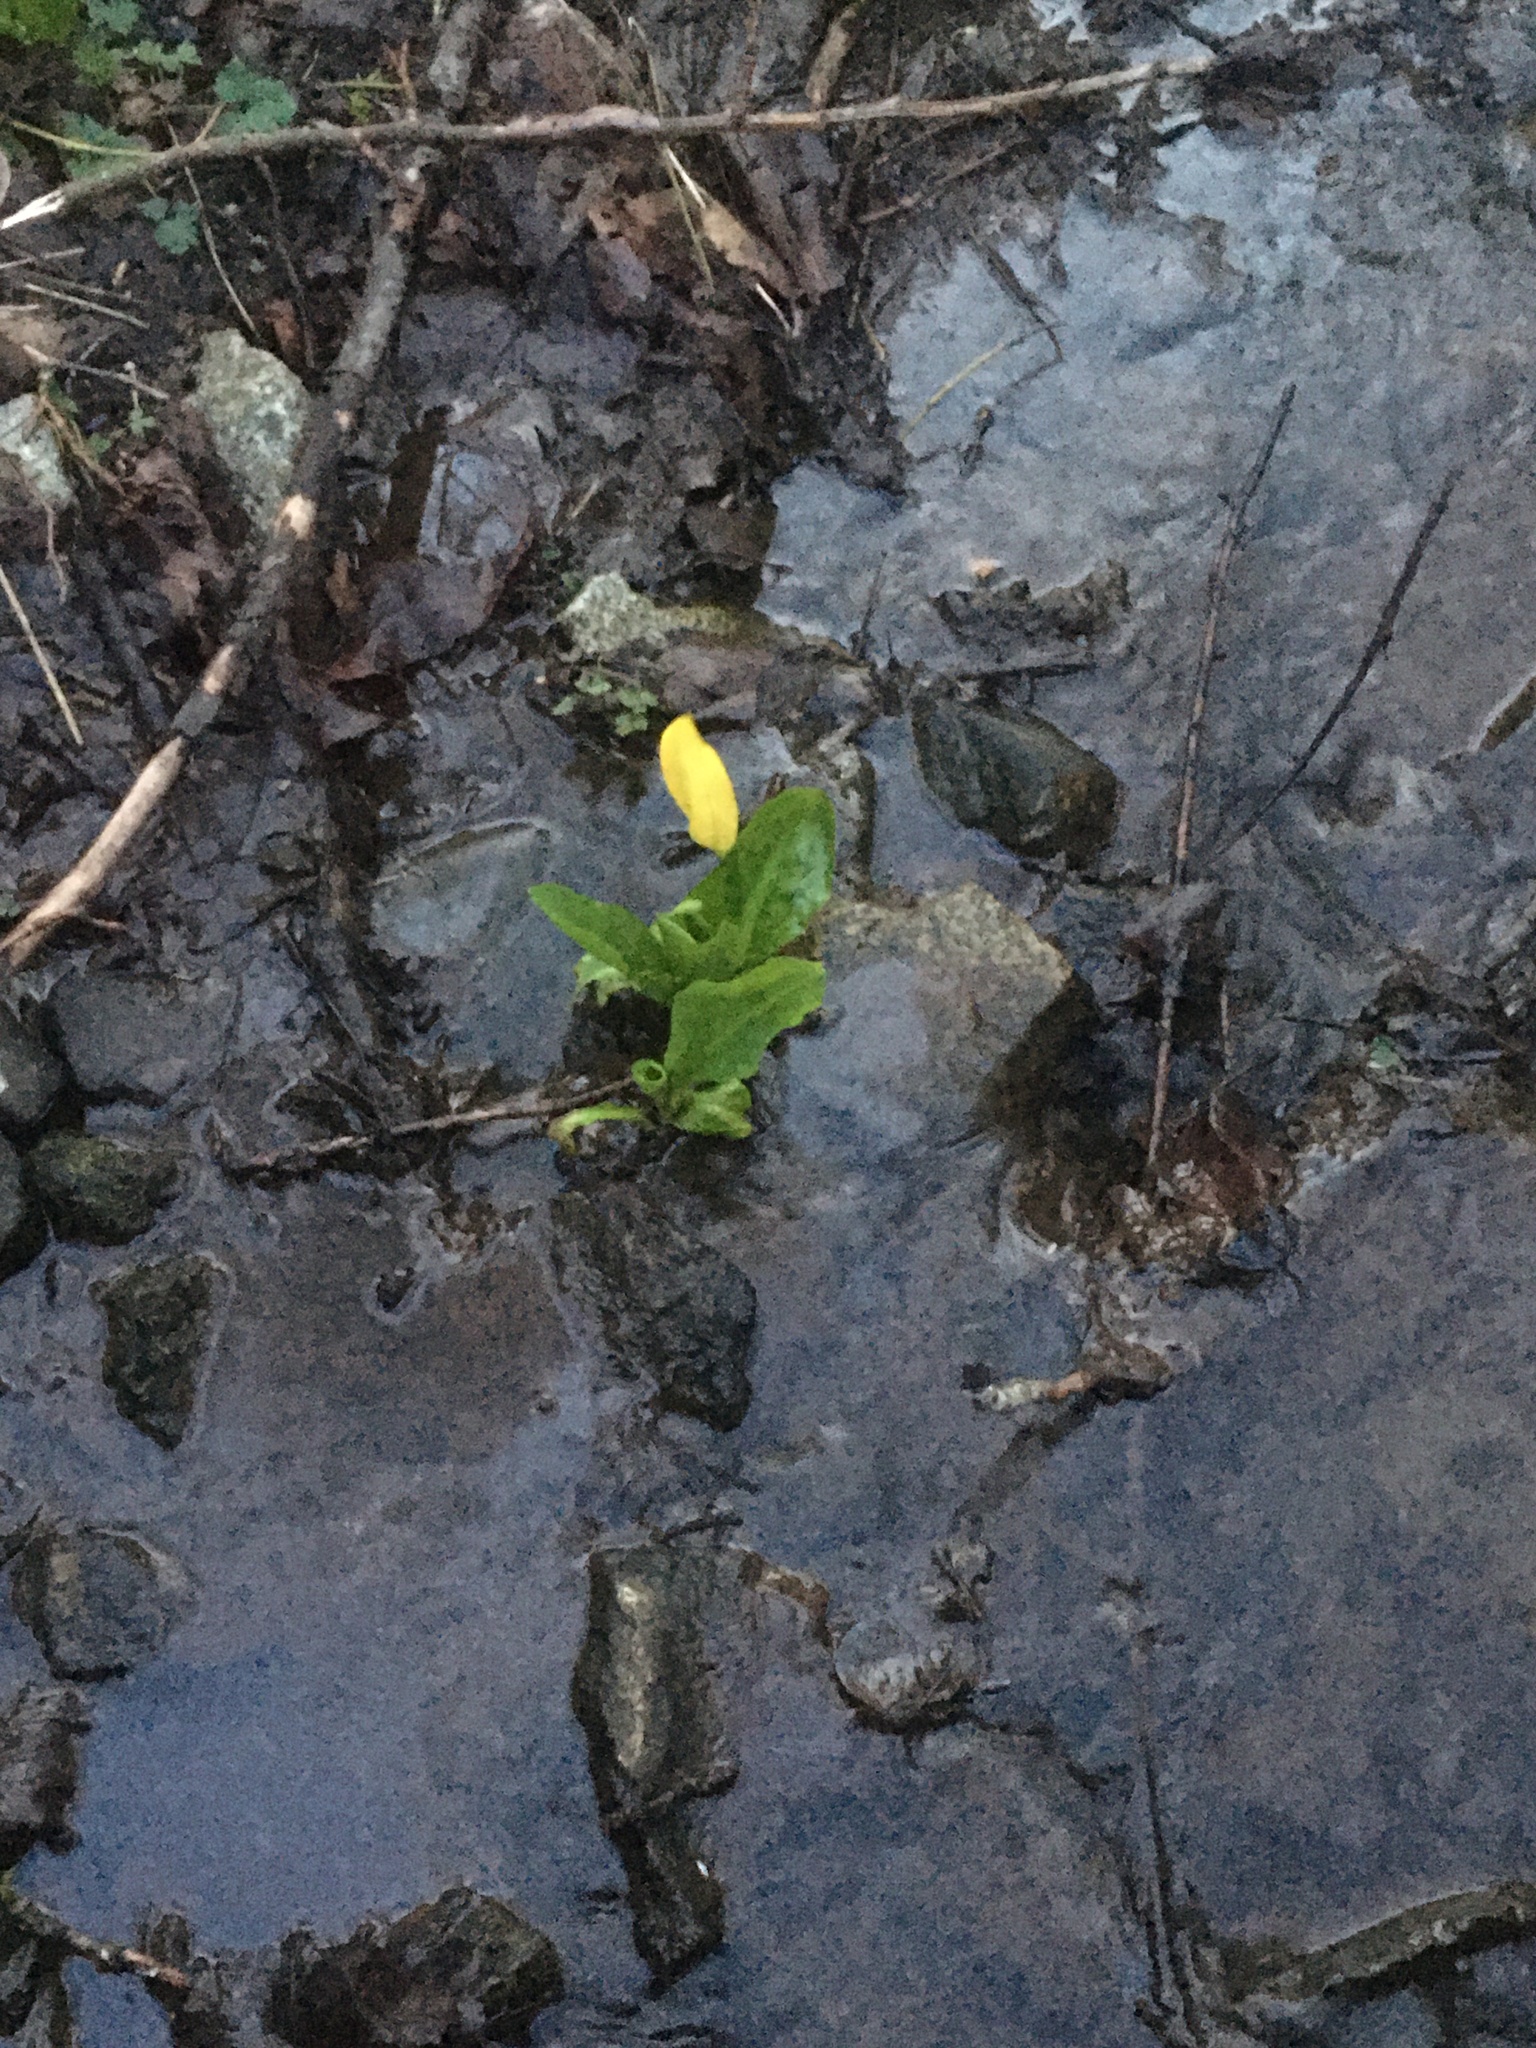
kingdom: Plantae
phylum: Tracheophyta
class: Liliopsida
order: Alismatales
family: Araceae
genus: Lysichiton
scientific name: Lysichiton americanus
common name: American skunk cabbage
